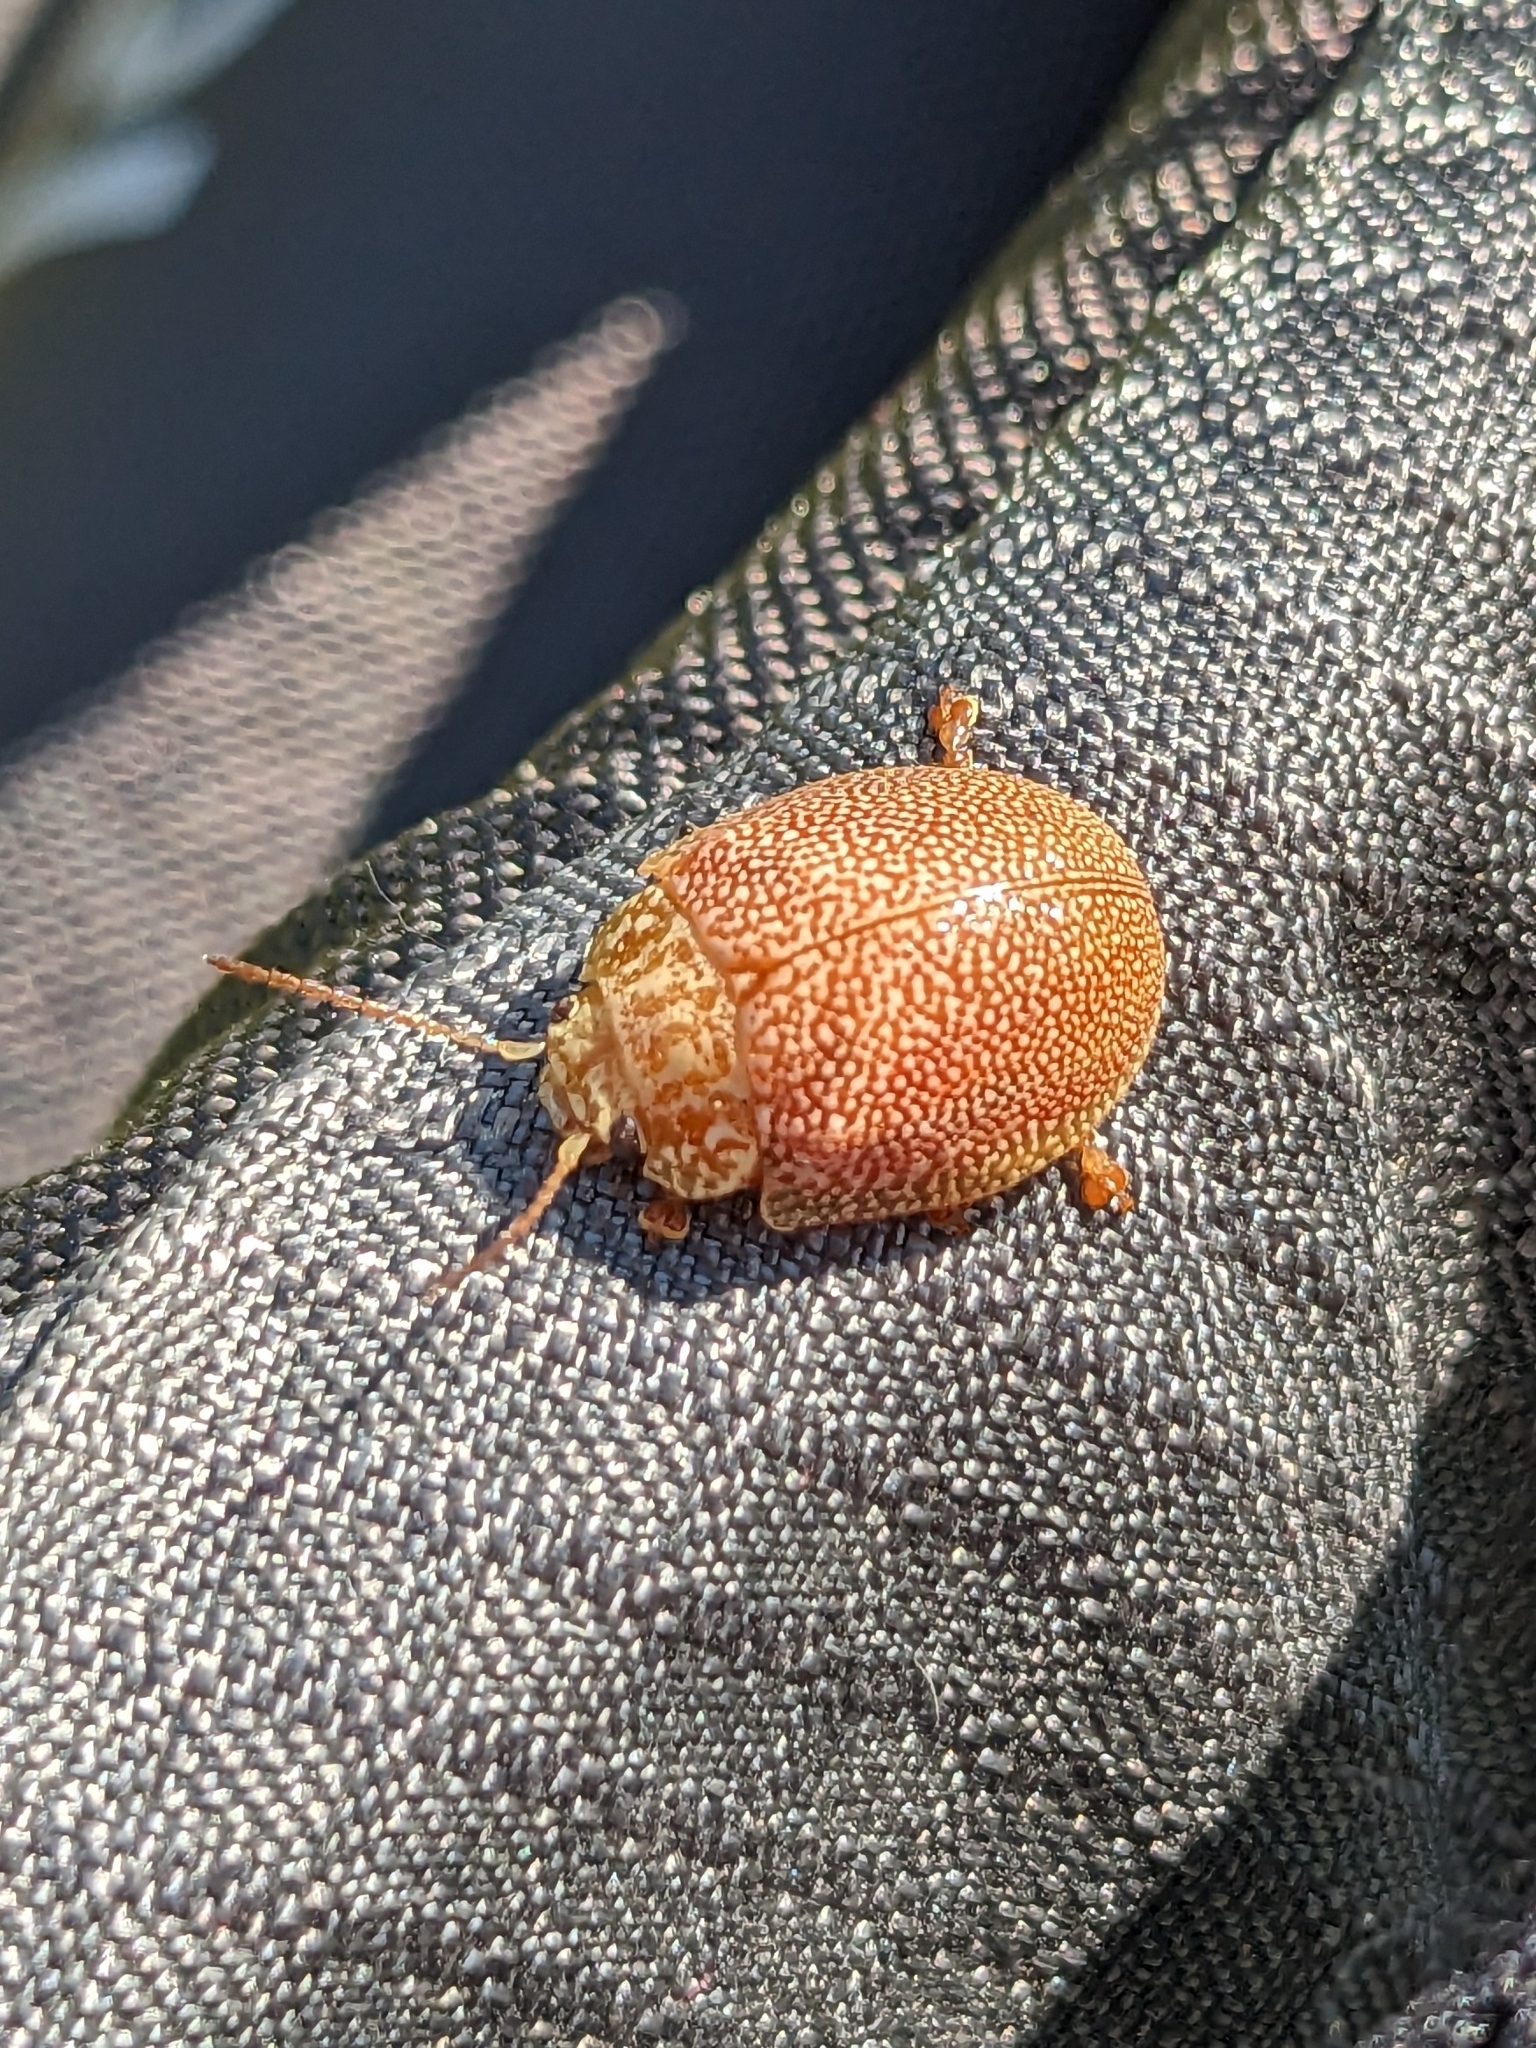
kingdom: Animalia
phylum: Arthropoda
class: Insecta
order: Coleoptera
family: Chrysomelidae
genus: Paropsis
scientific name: Paropsis
